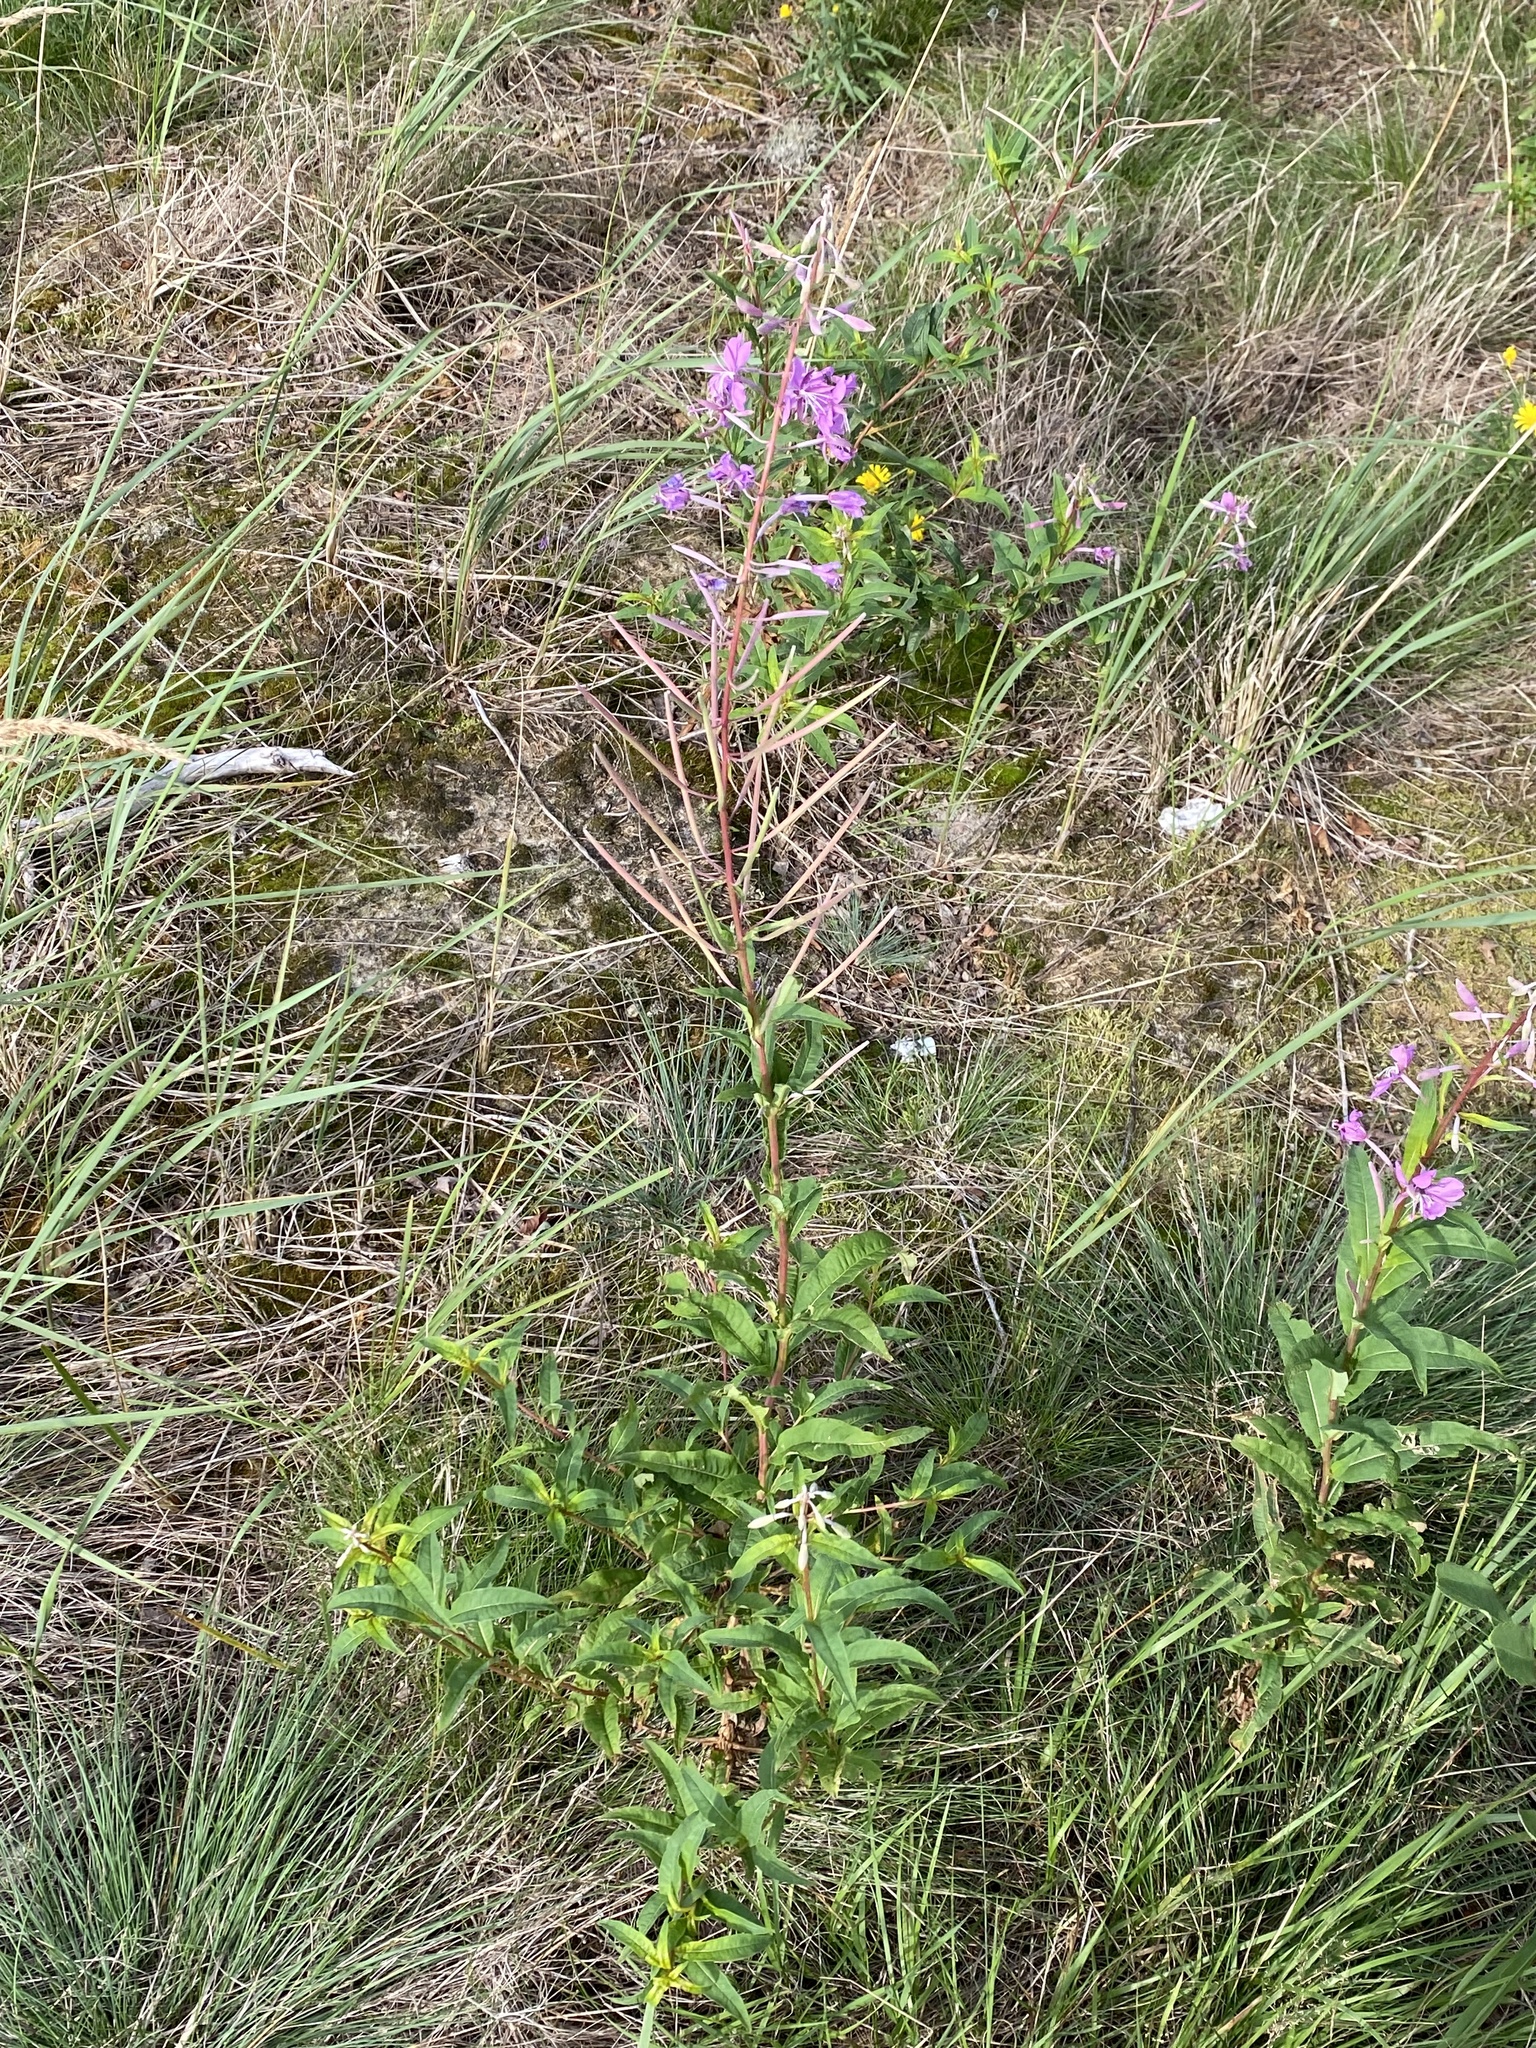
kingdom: Plantae
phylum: Tracheophyta
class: Magnoliopsida
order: Myrtales
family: Onagraceae
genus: Chamaenerion
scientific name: Chamaenerion angustifolium
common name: Fireweed
